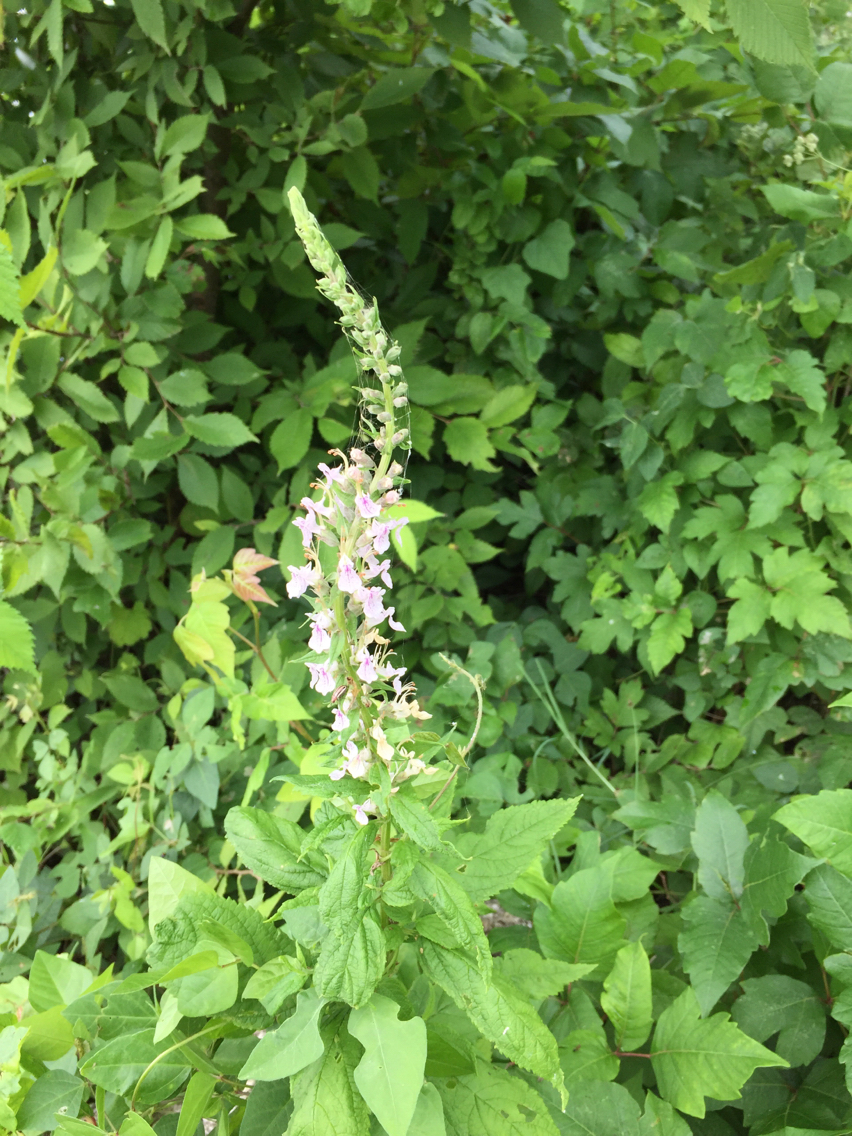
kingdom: Plantae
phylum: Tracheophyta
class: Magnoliopsida
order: Lamiales
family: Lamiaceae
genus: Teucrium
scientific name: Teucrium canadense
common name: American germander
